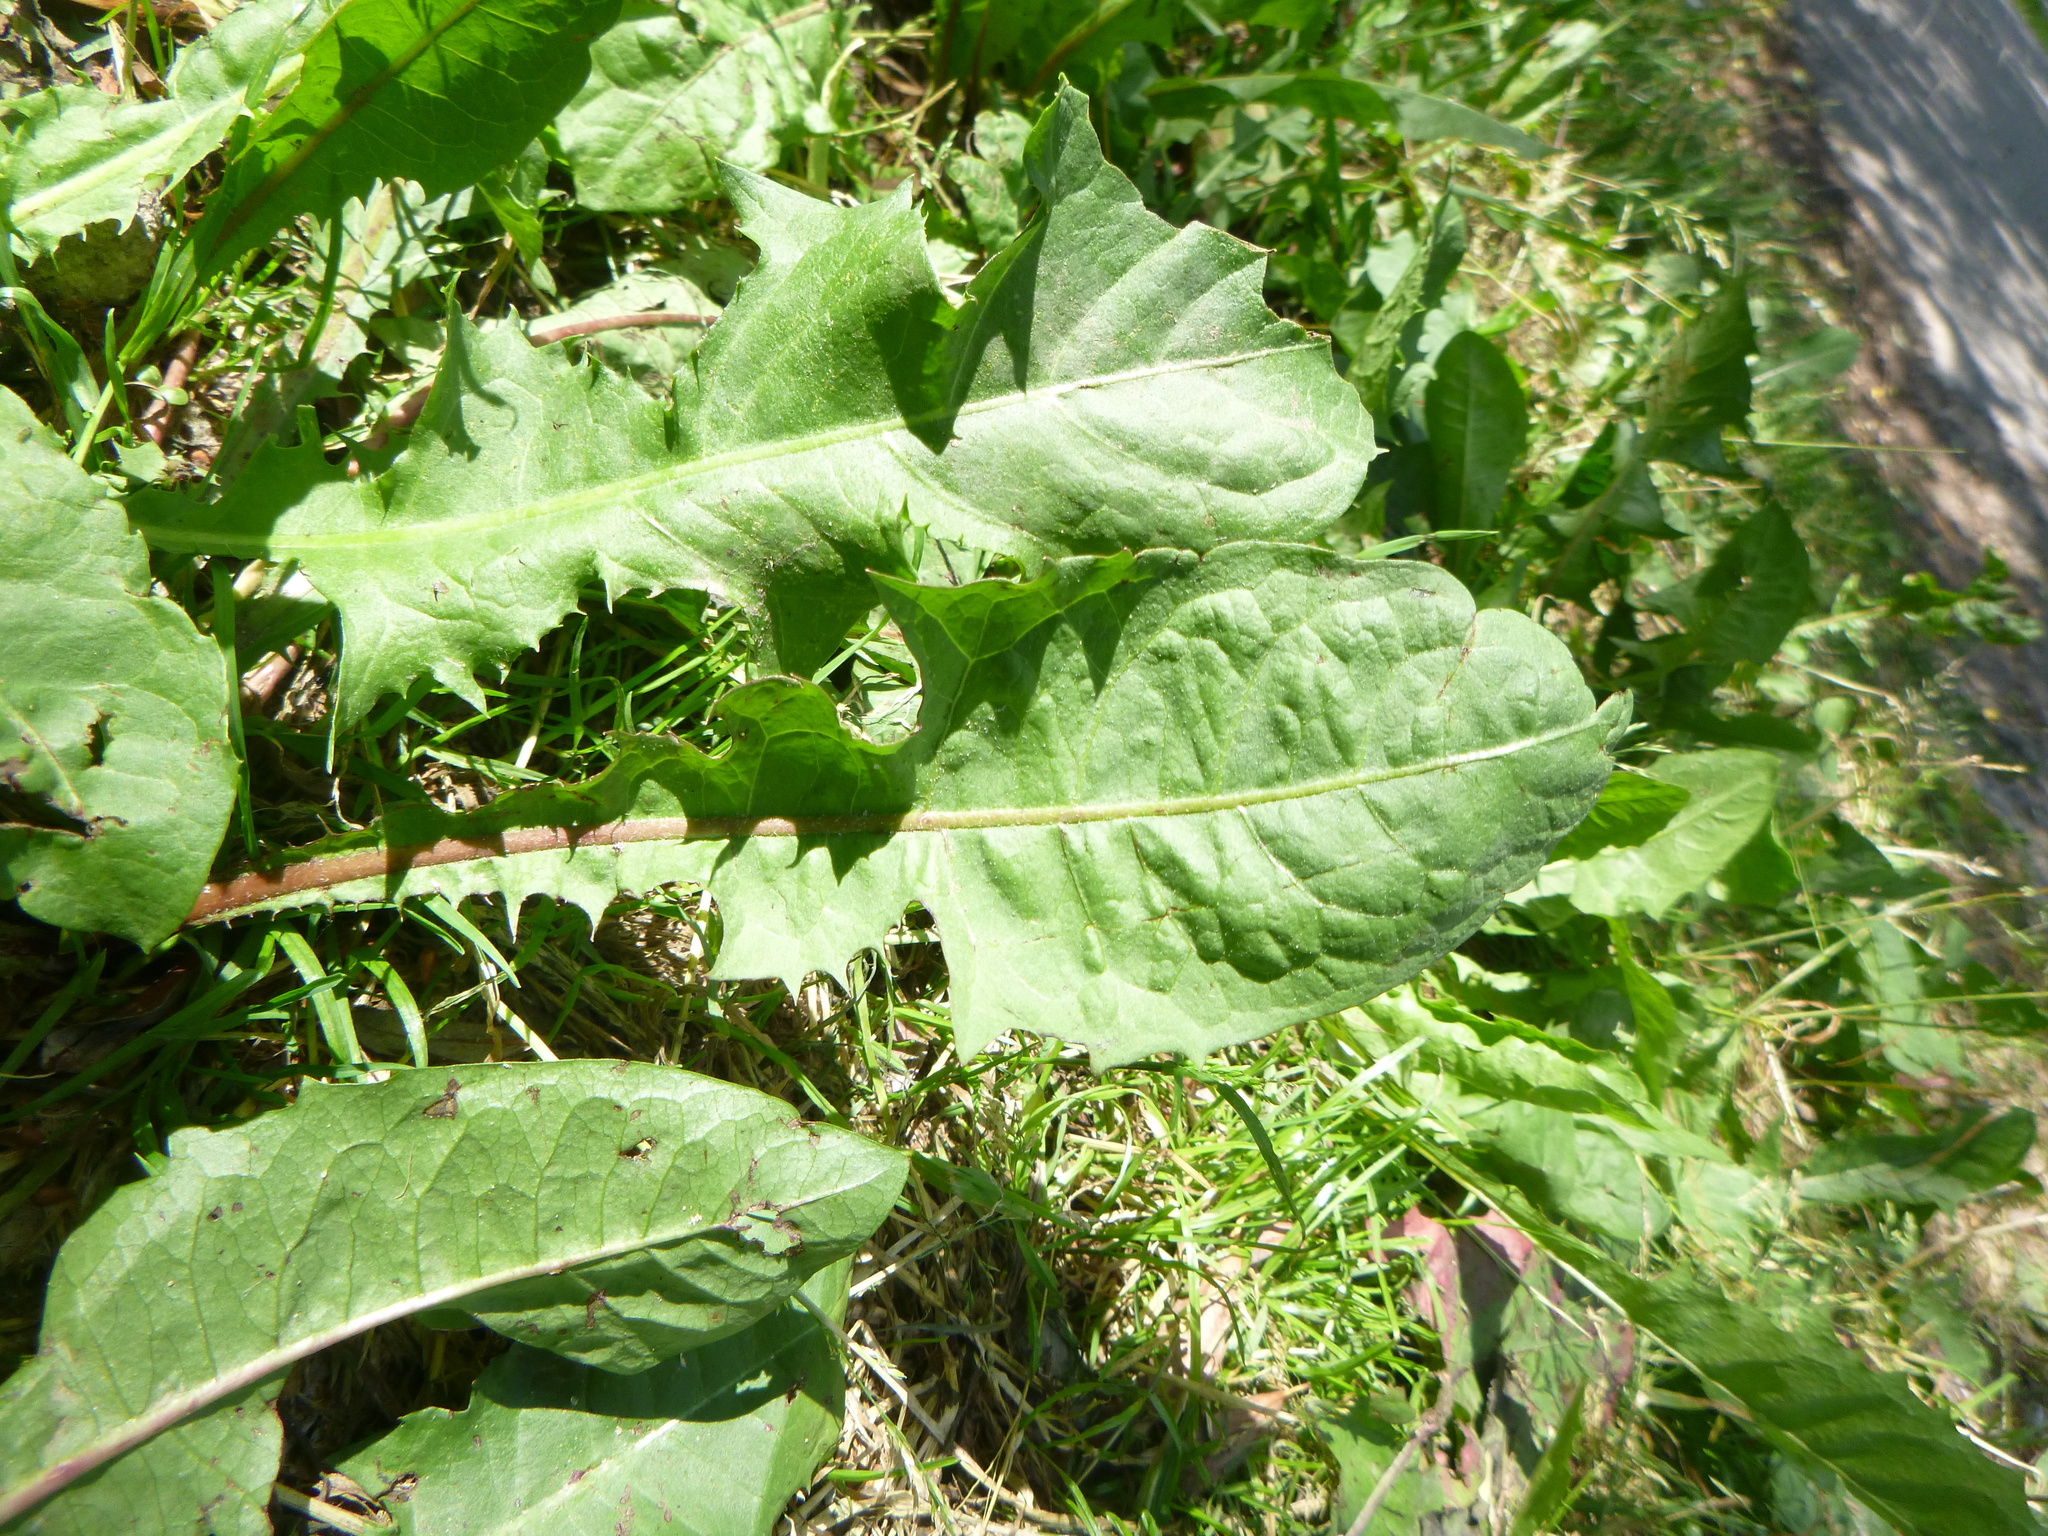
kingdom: Plantae
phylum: Tracheophyta
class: Magnoliopsida
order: Asterales
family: Asteraceae
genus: Taraxacum
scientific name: Taraxacum officinale
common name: Common dandelion
